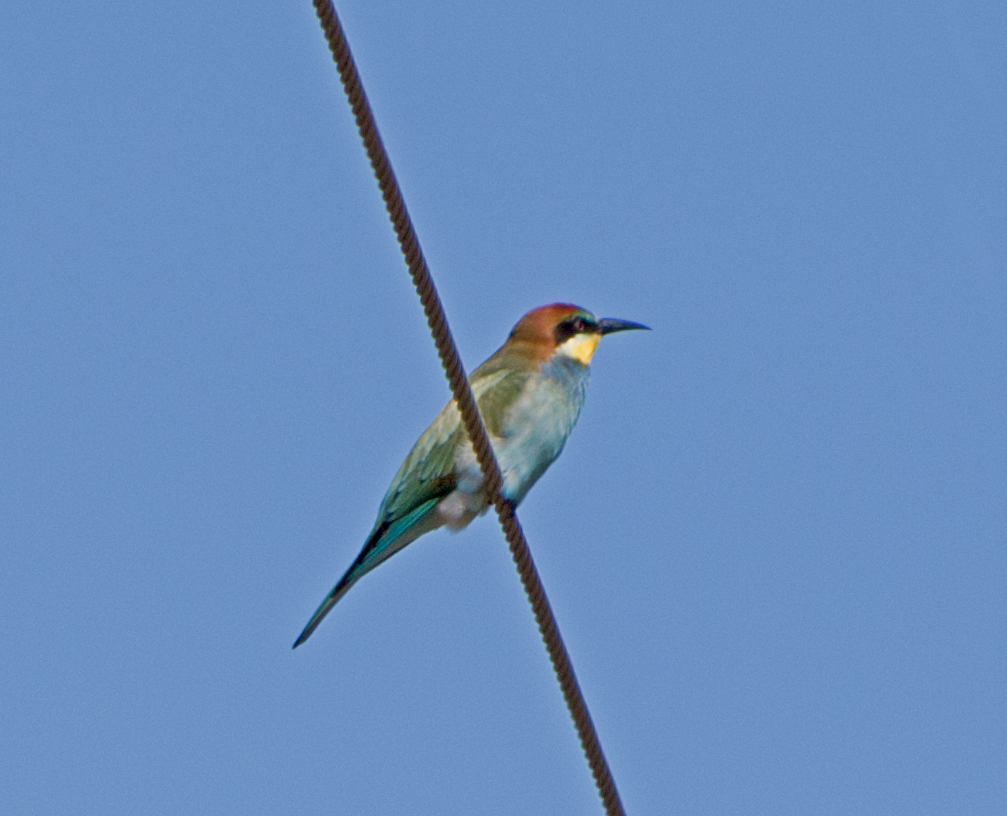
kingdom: Animalia
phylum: Chordata
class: Aves
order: Coraciiformes
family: Meropidae
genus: Merops
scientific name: Merops apiaster
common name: European bee-eater
